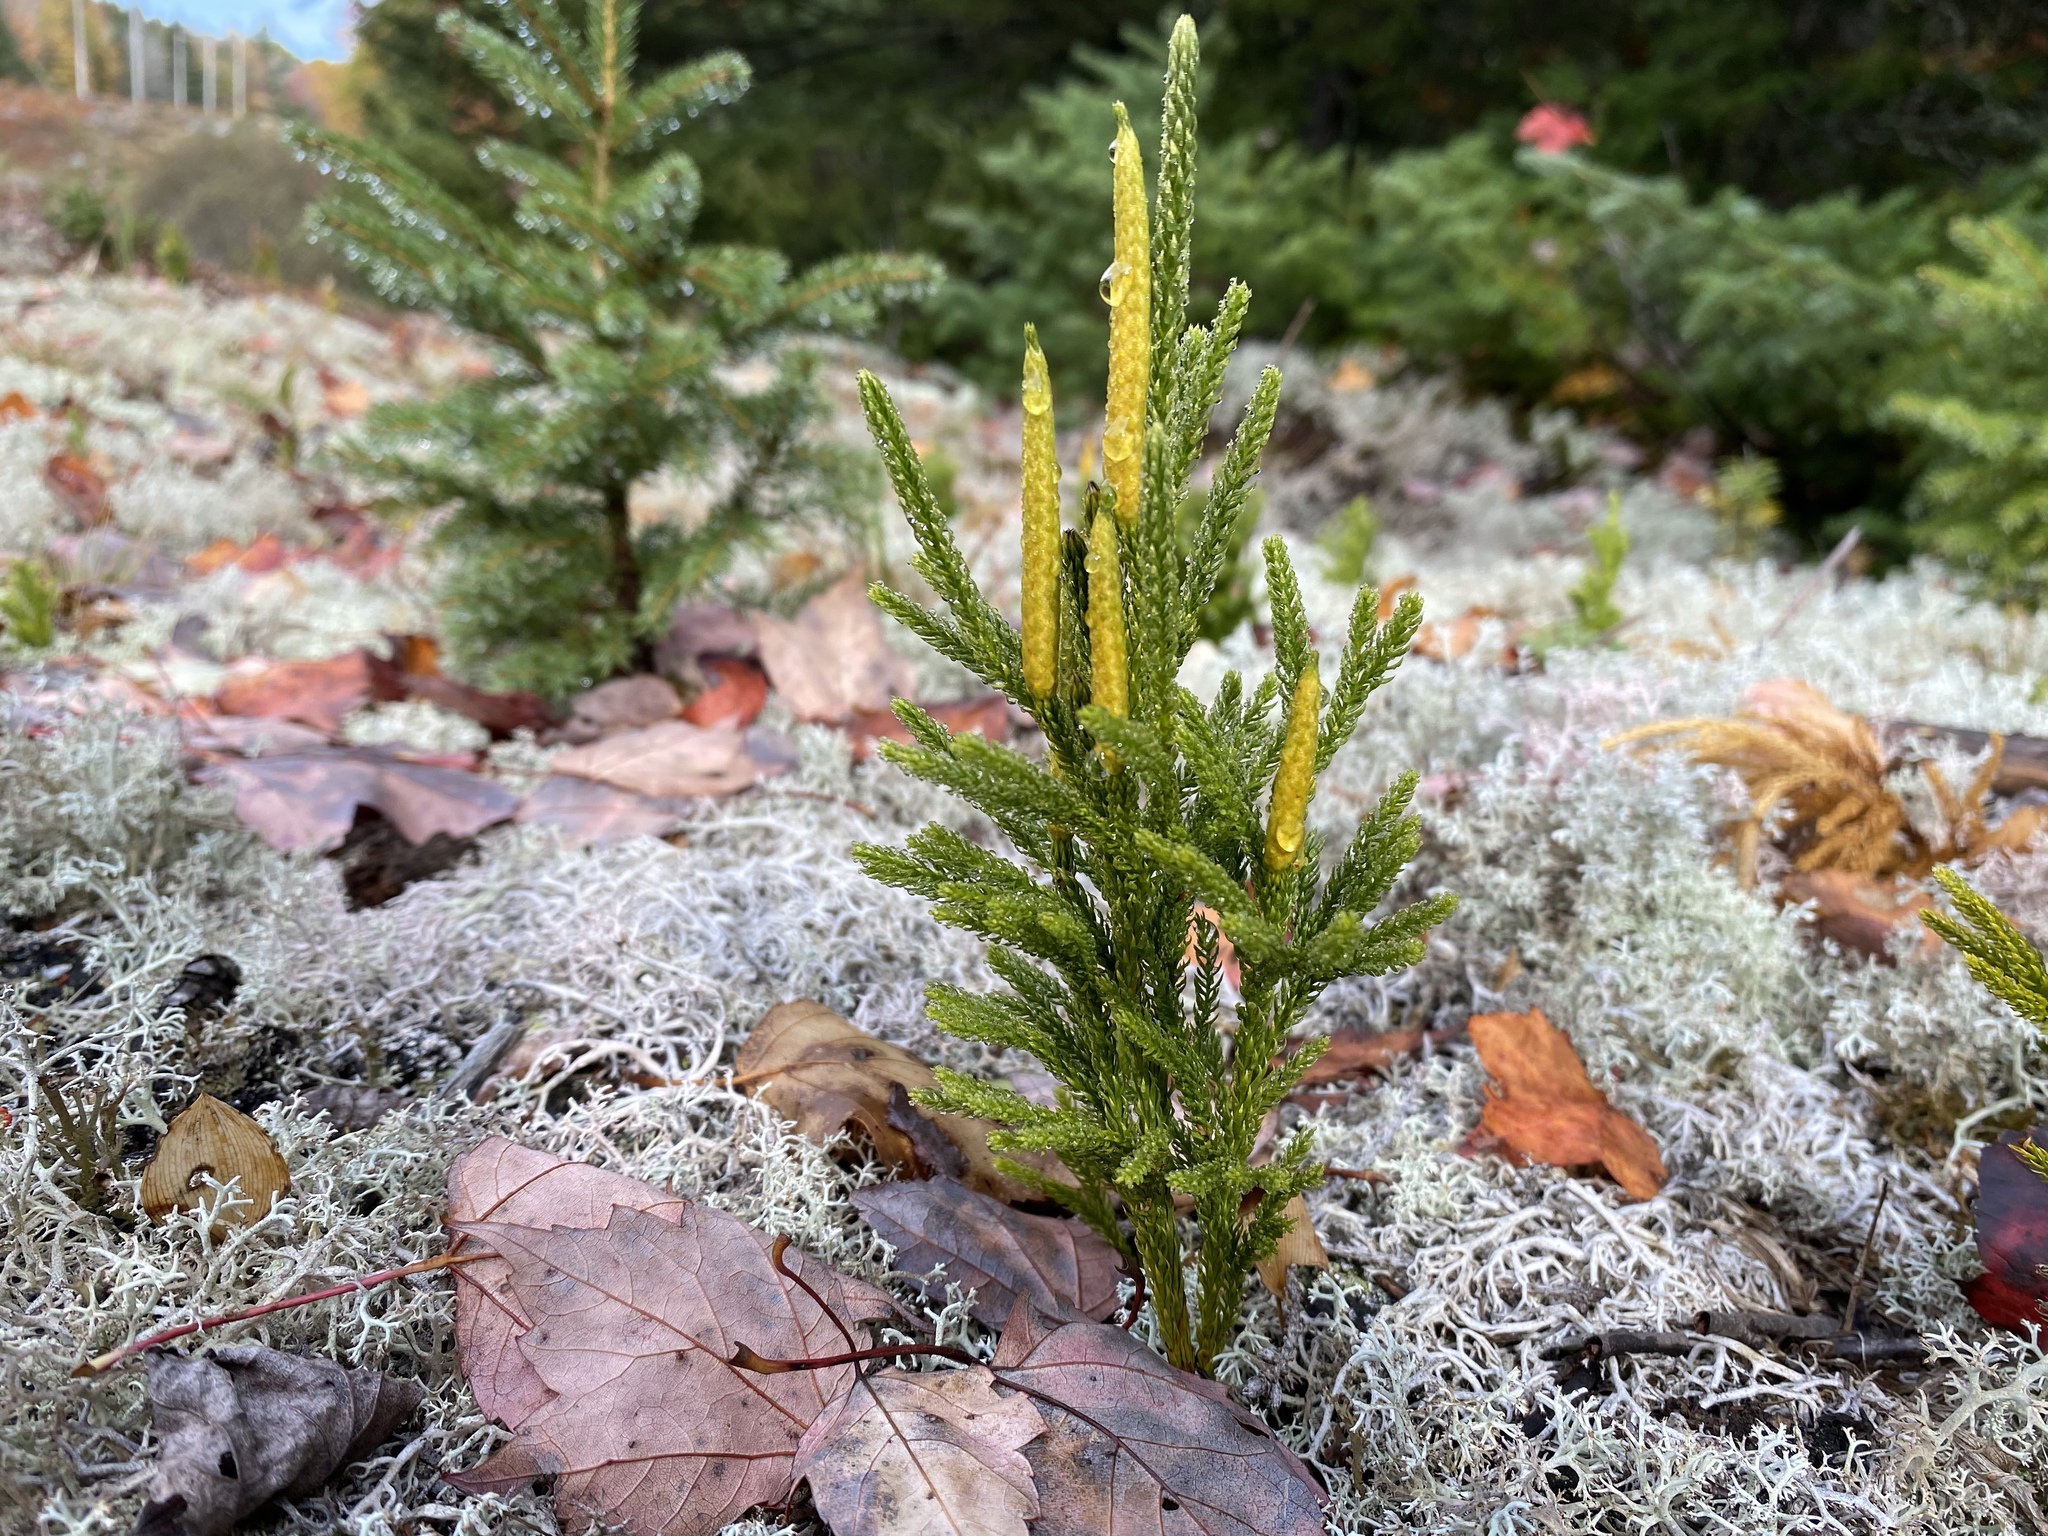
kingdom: Plantae
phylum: Tracheophyta
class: Lycopodiopsida
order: Lycopodiales
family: Lycopodiaceae
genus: Dendrolycopodium
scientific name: Dendrolycopodium hickeyi
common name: Hickey's clubmoss
